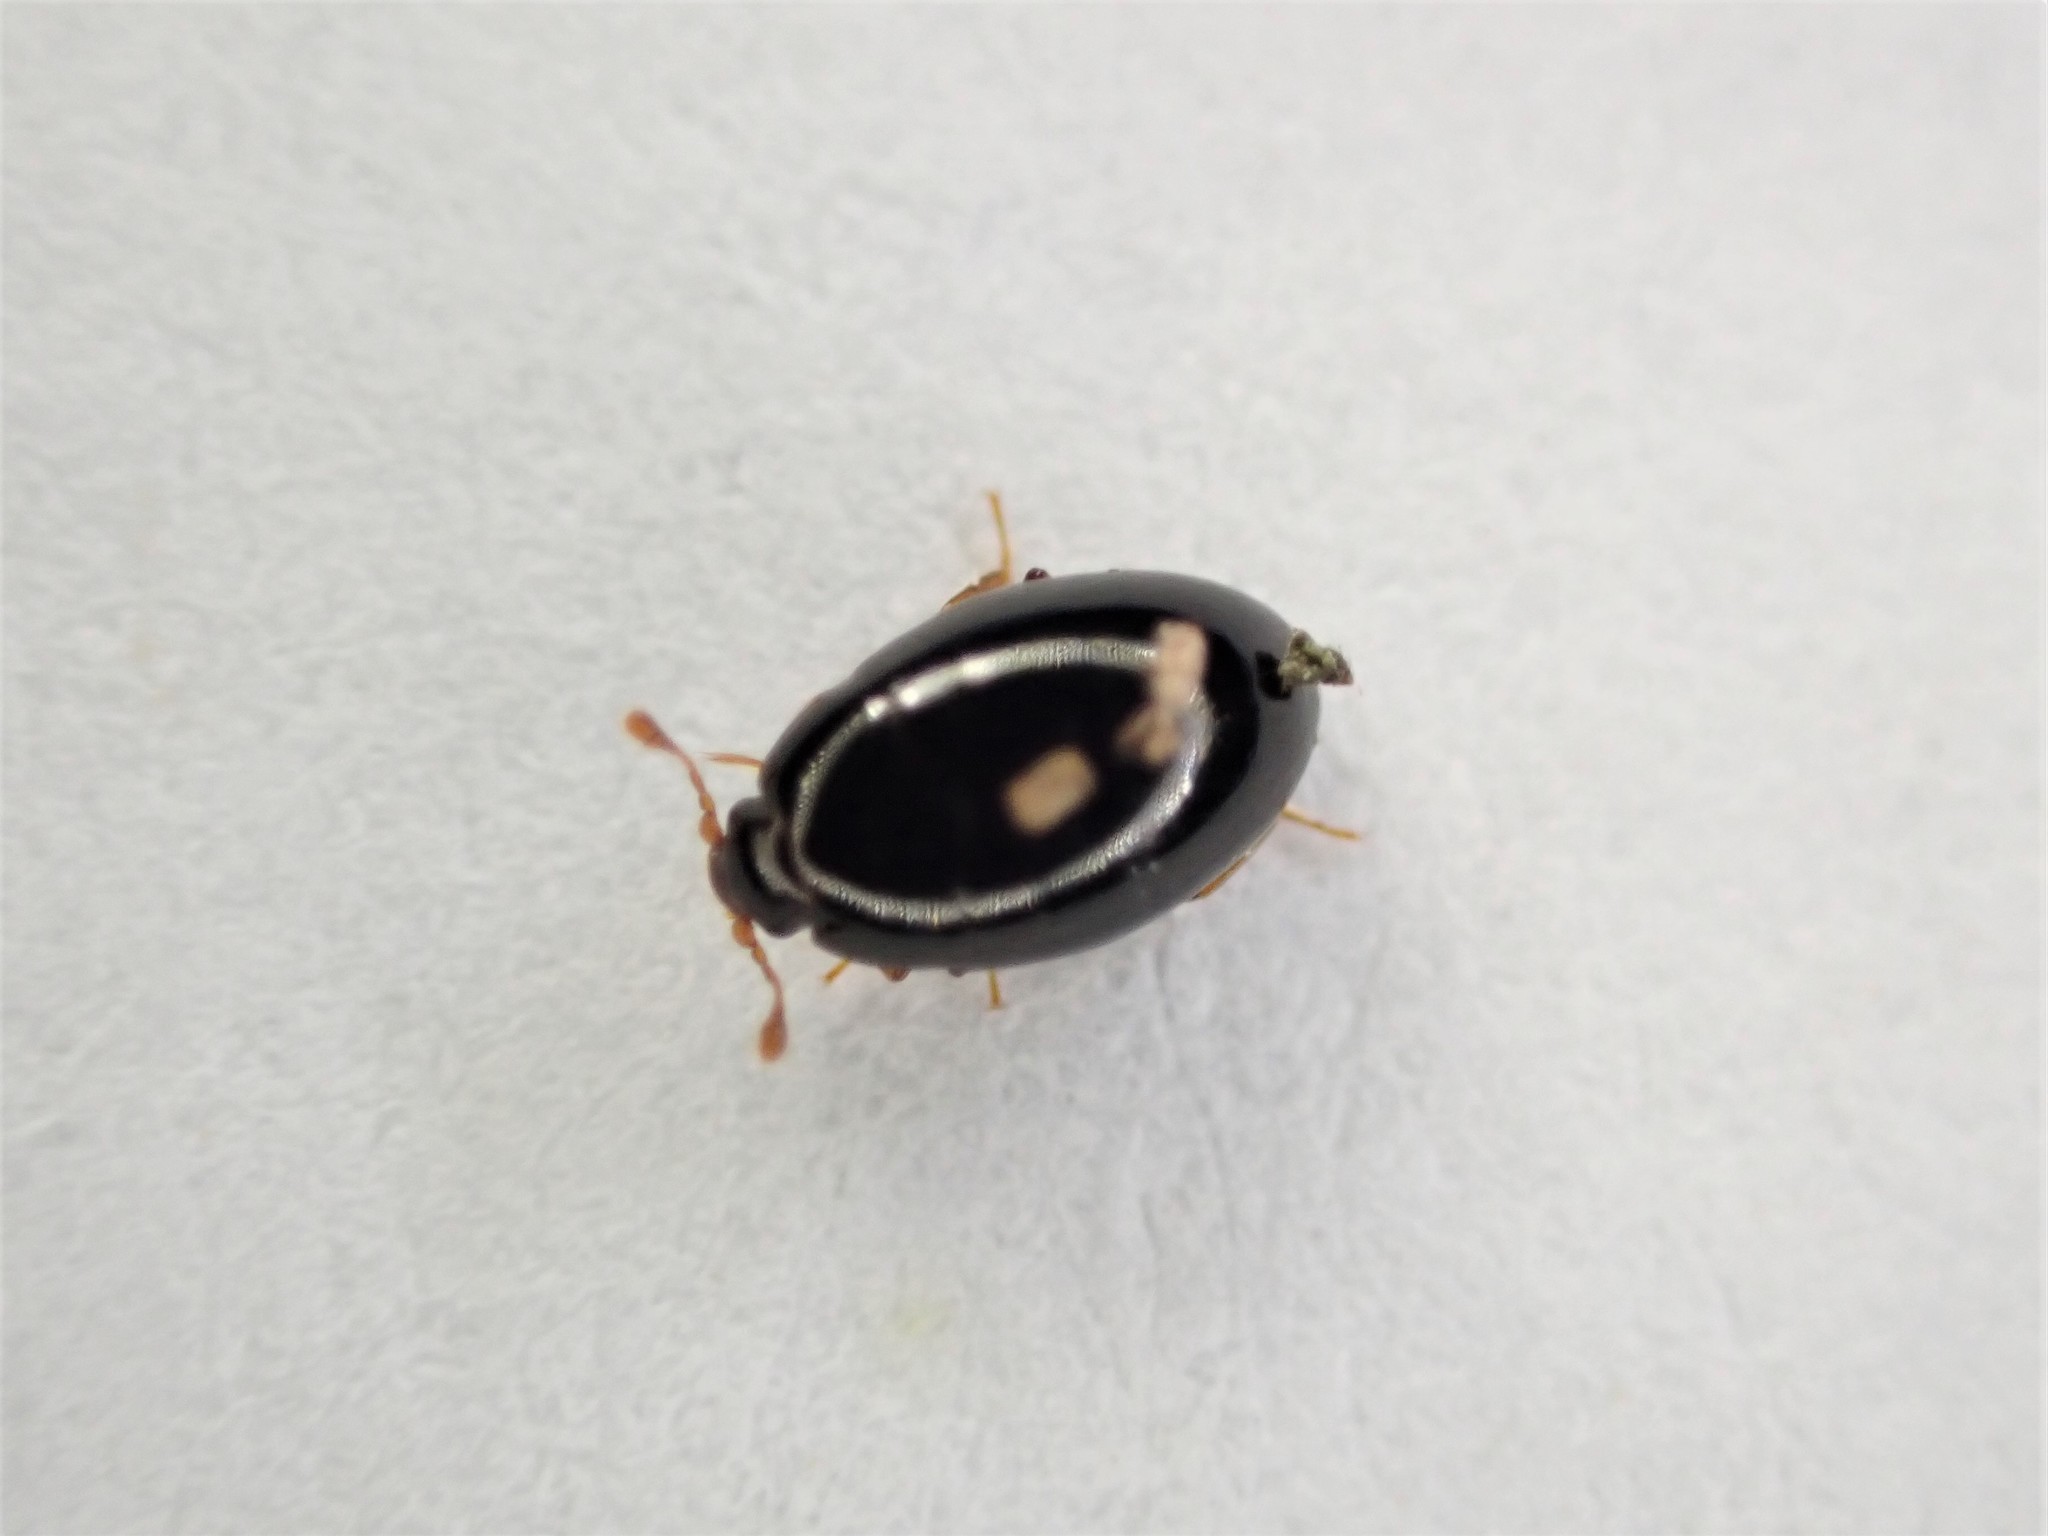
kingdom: Animalia
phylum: Arthropoda
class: Insecta
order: Coleoptera
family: Cerylonidae
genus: Hypodacnella
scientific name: Hypodacnella
